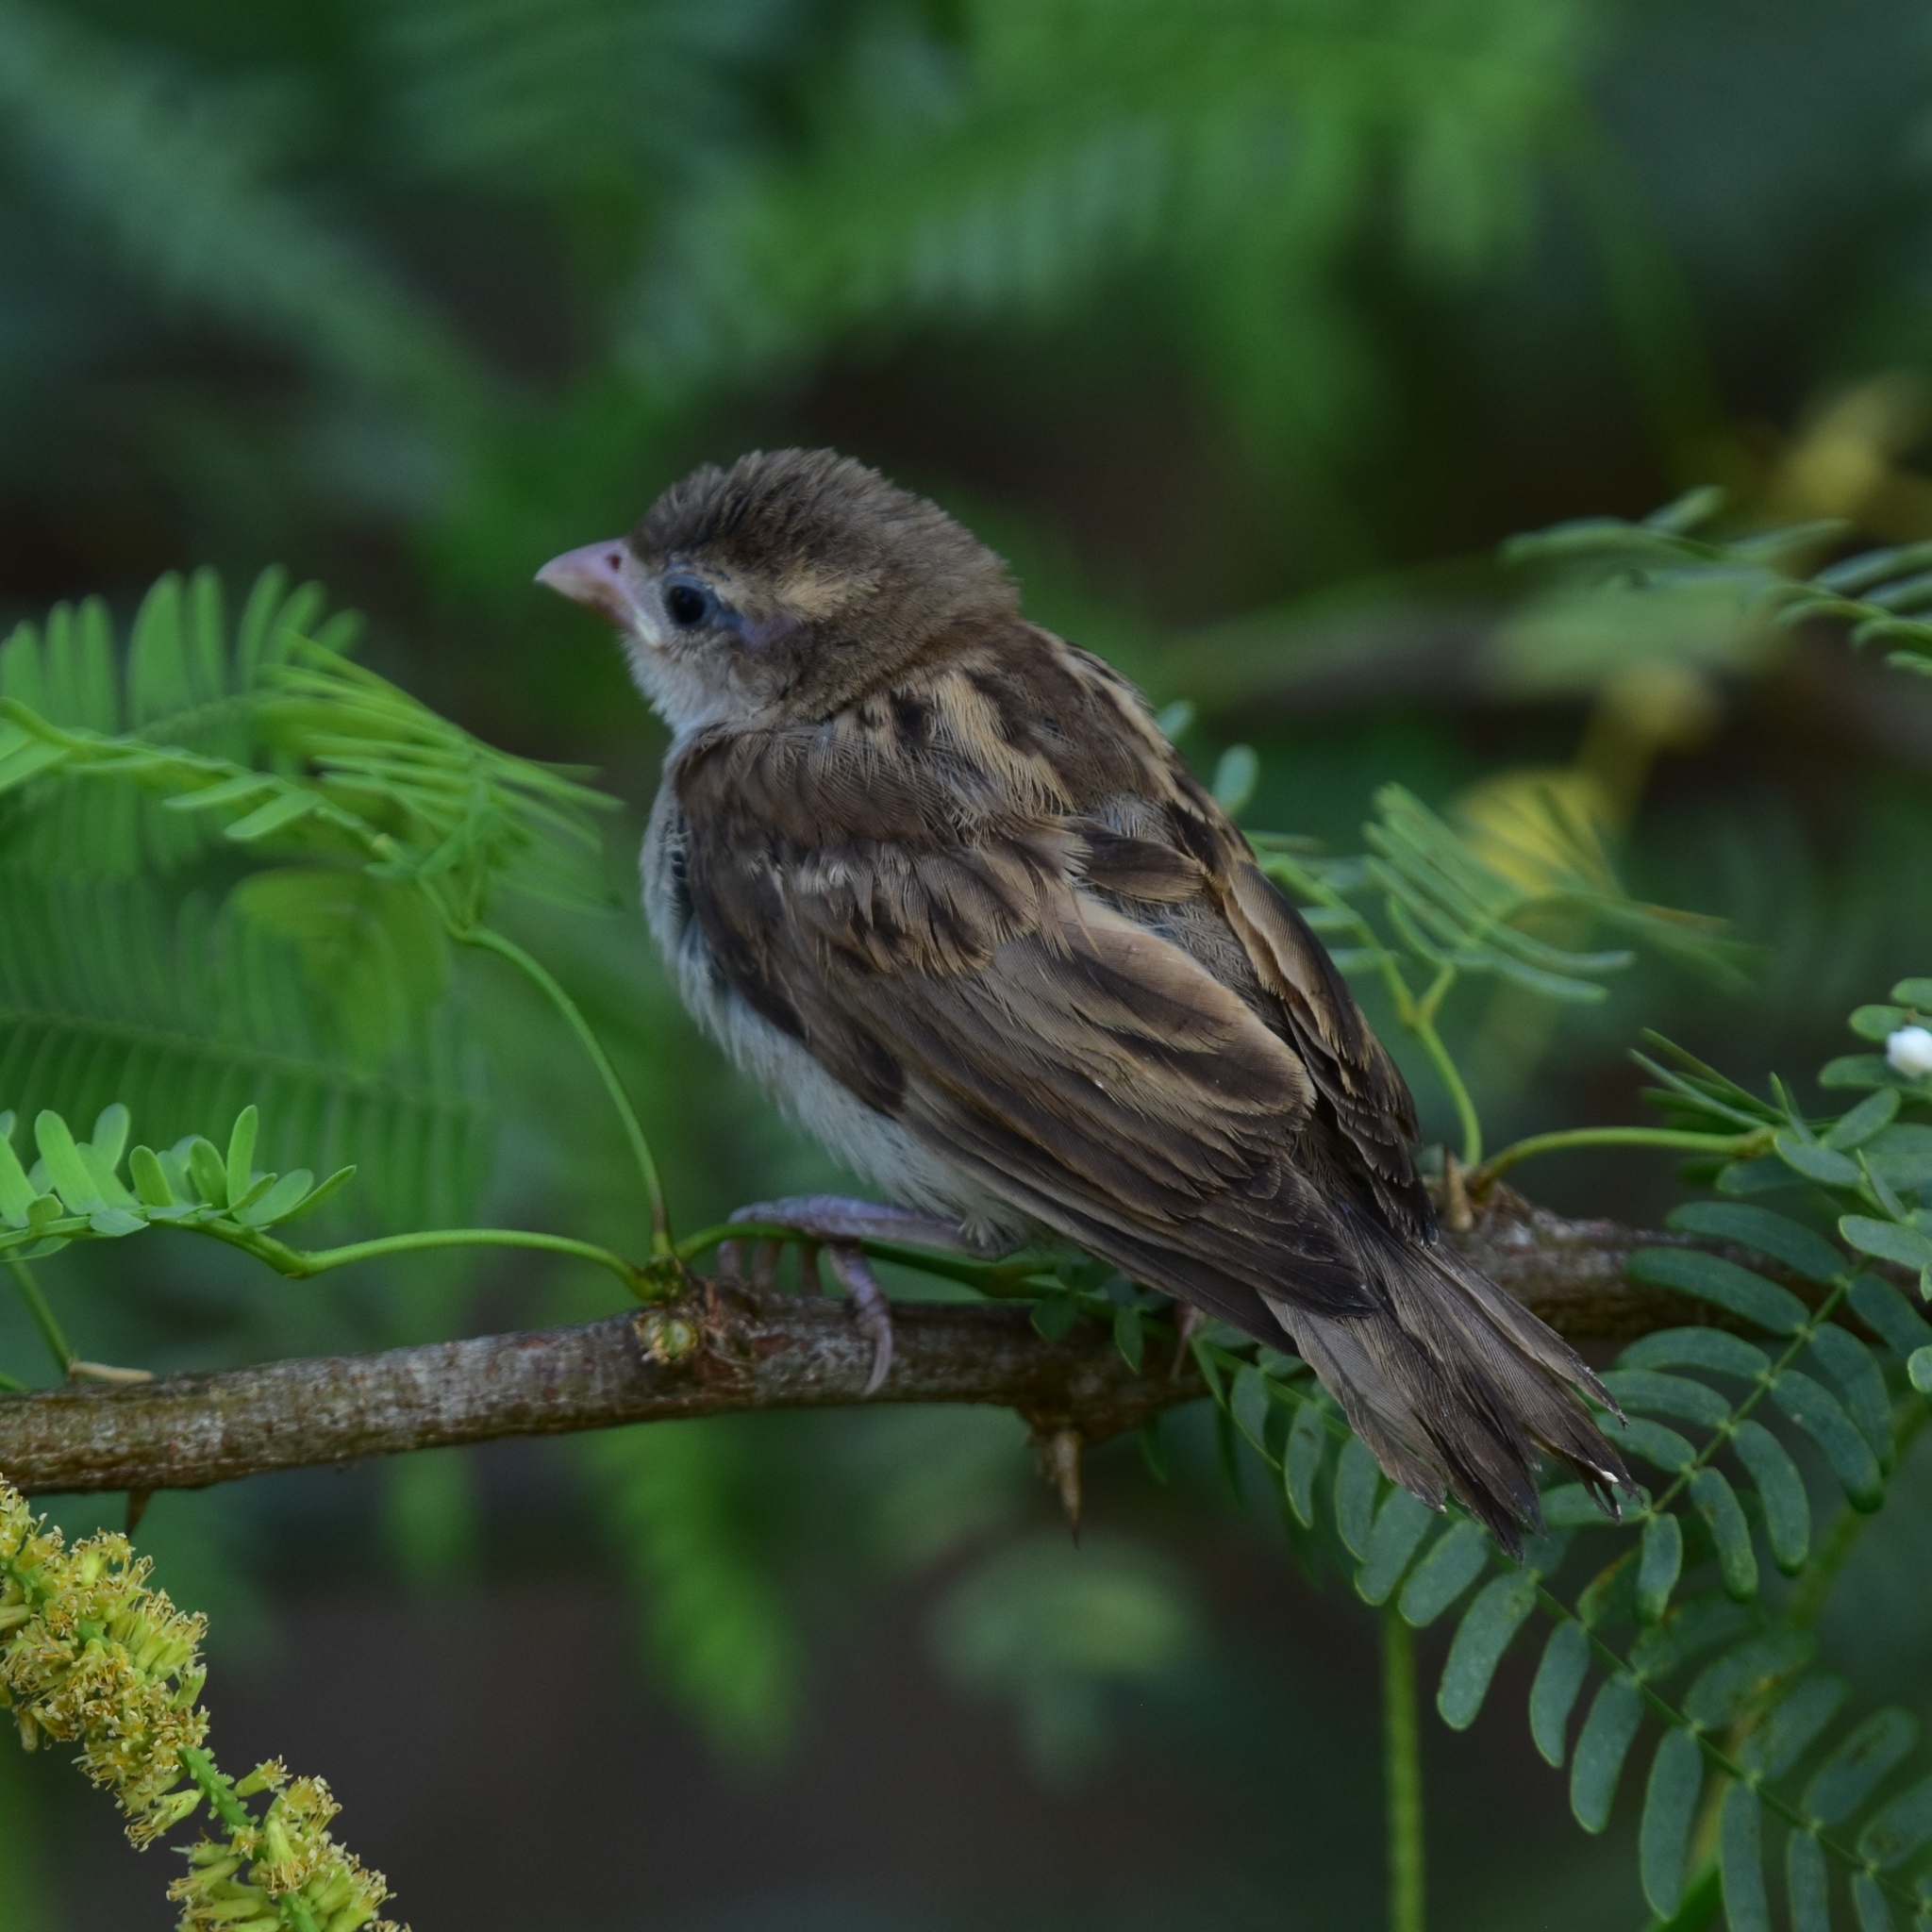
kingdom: Animalia
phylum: Chordata
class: Aves
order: Passeriformes
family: Passeridae
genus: Passer
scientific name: Passer domesticus
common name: House sparrow
